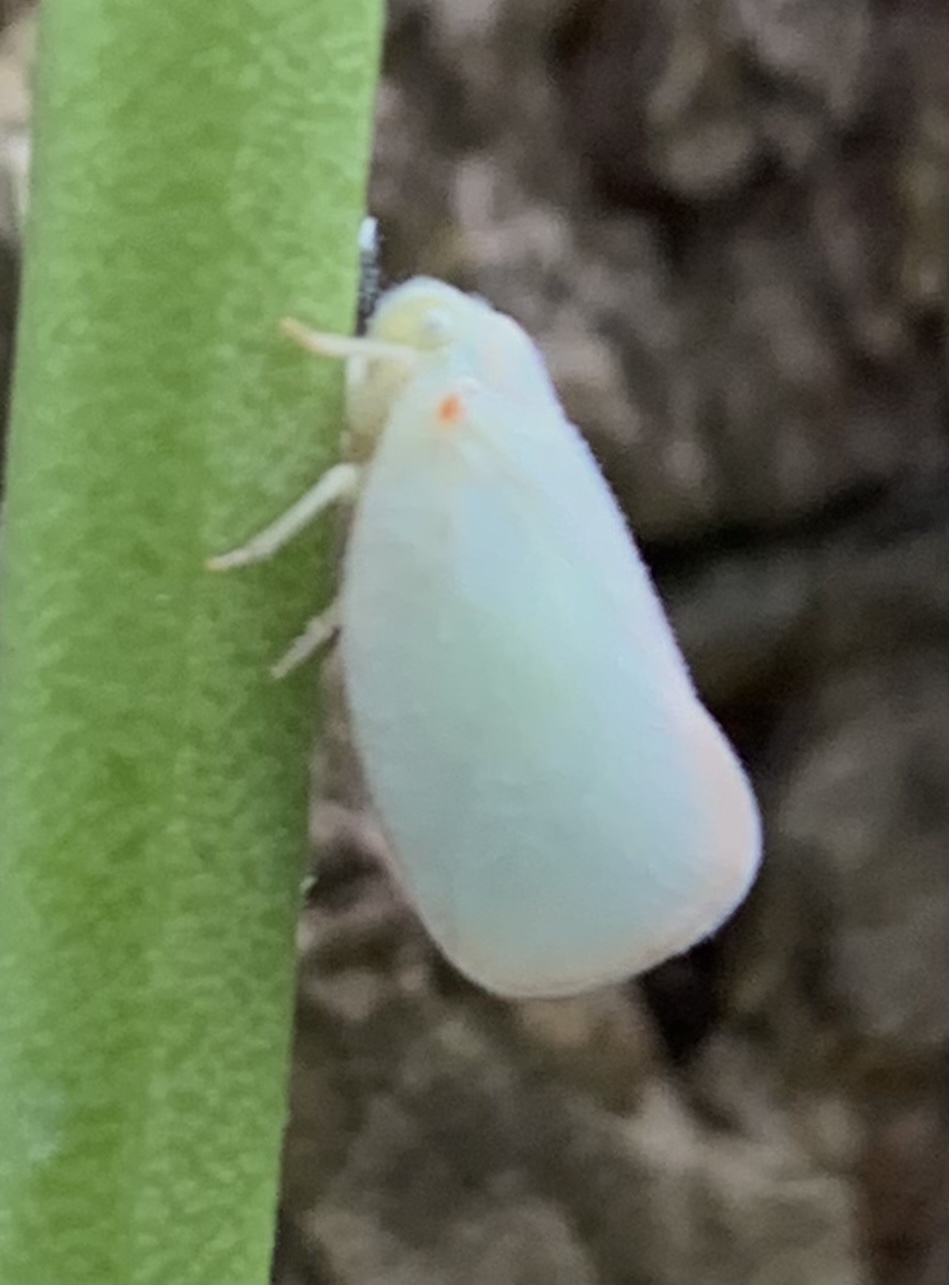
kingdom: Animalia
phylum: Arthropoda
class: Insecta
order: Hemiptera
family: Flatidae
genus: Ormenoides
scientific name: Ormenoides venusta
